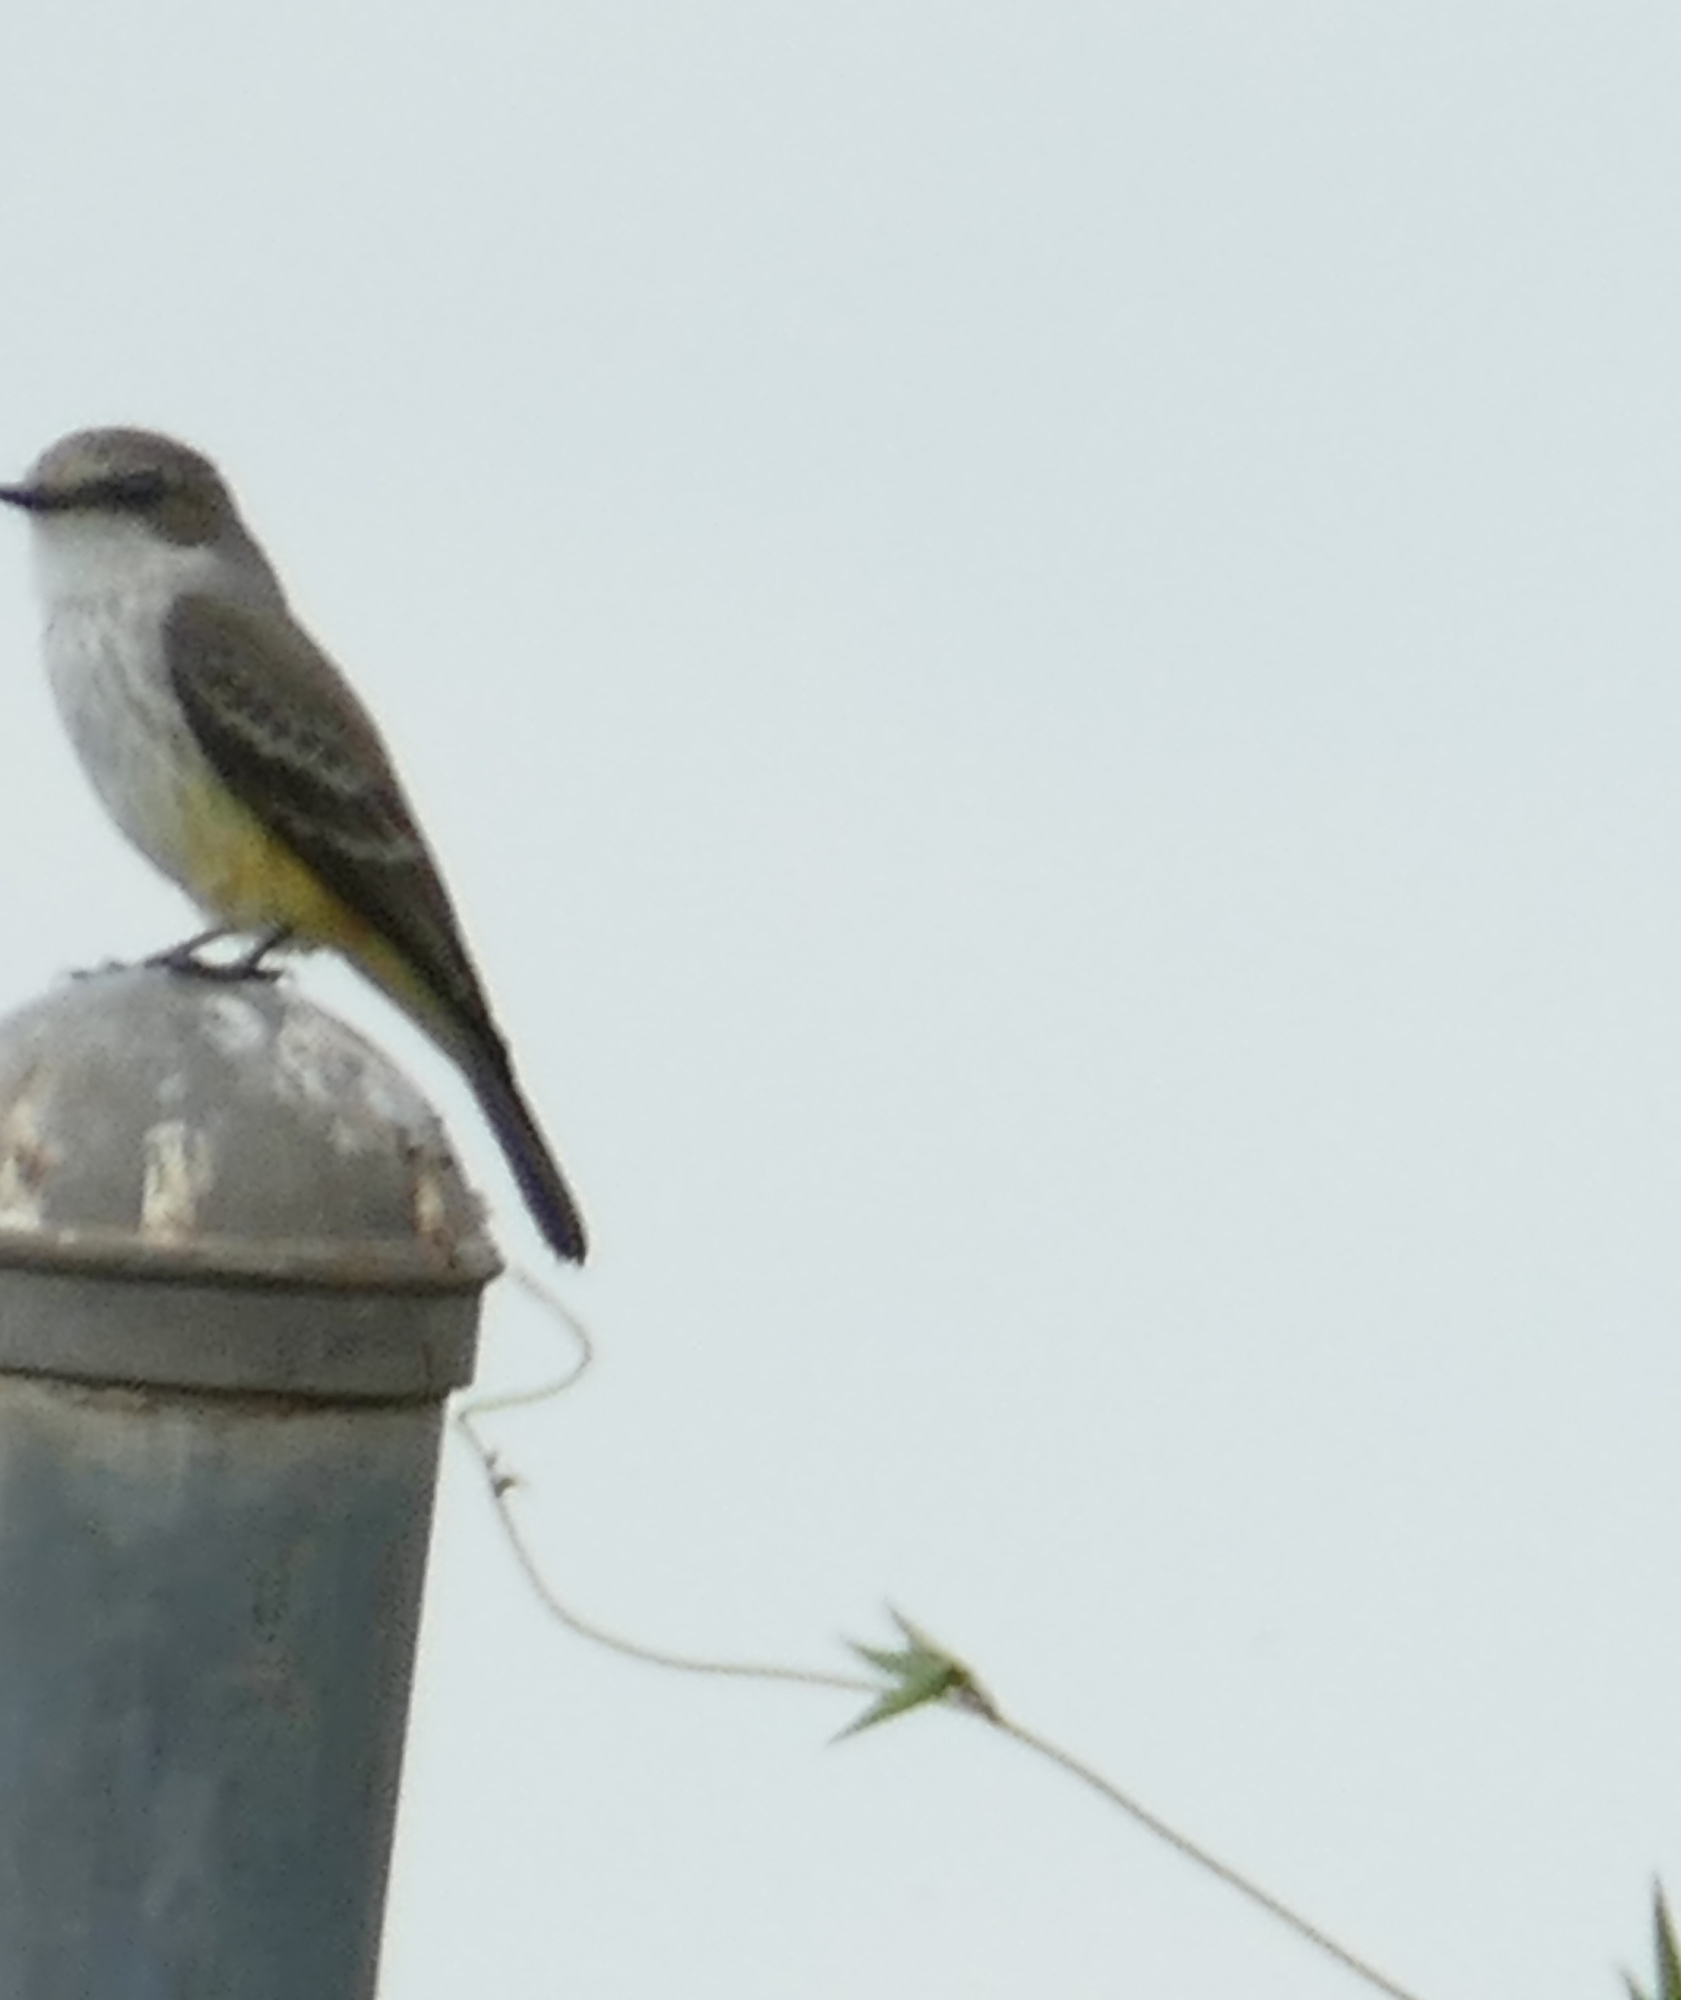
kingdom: Animalia
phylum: Chordata
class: Aves
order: Passeriformes
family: Tyrannidae
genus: Pyrocephalus
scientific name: Pyrocephalus rubinus
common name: Vermilion flycatcher
